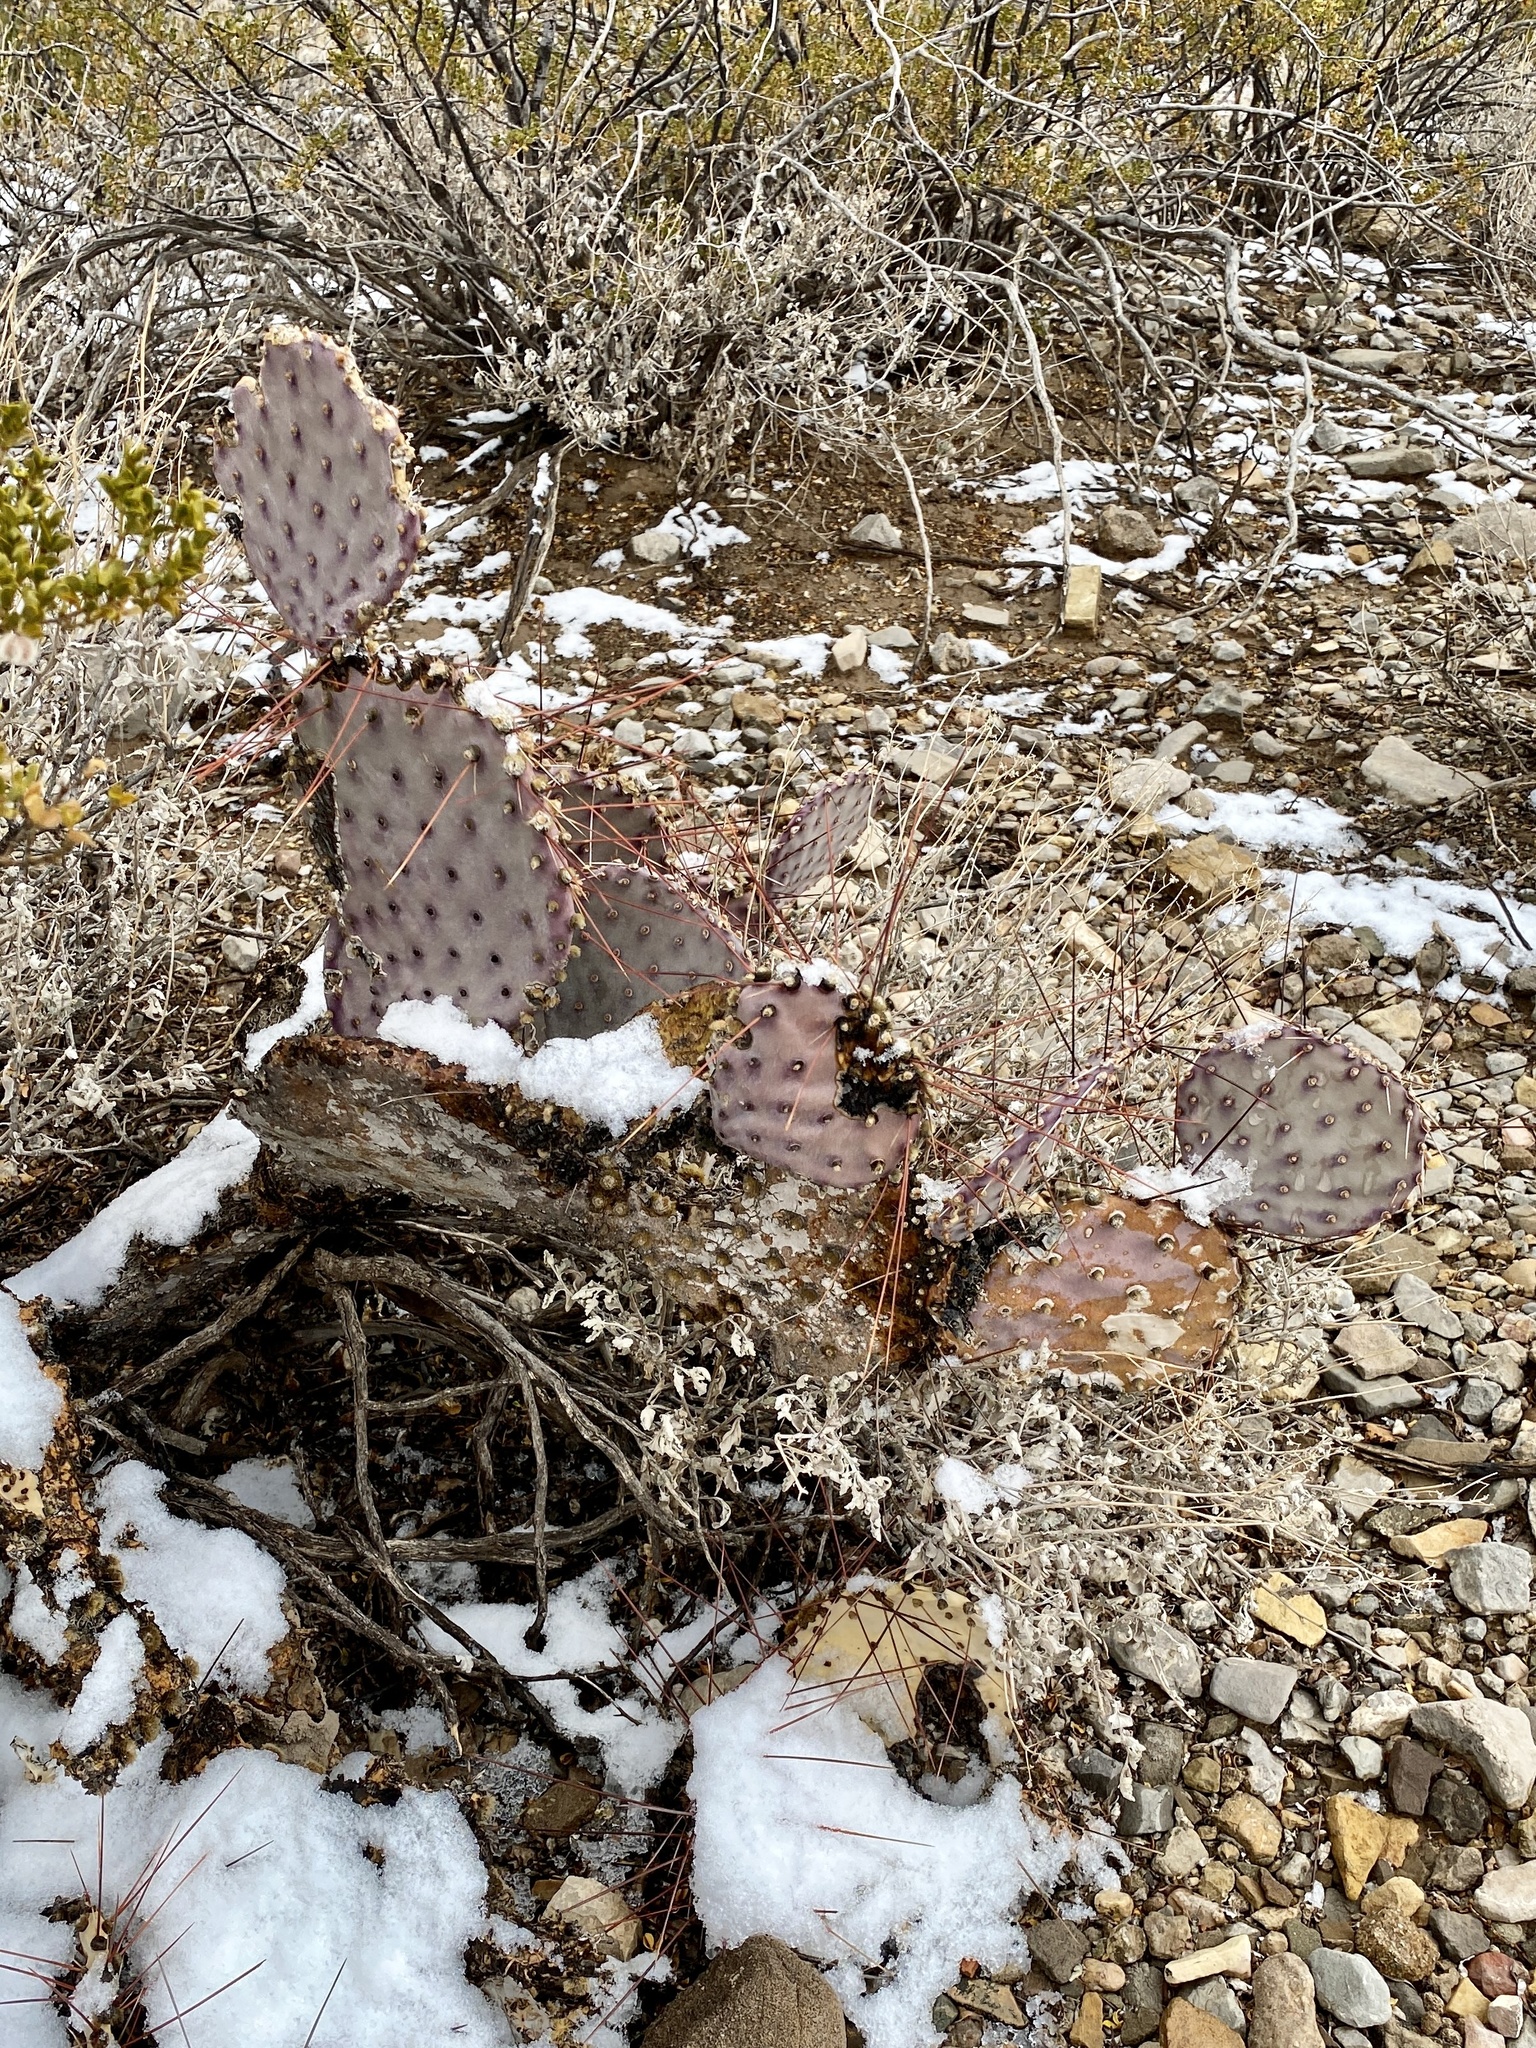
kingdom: Plantae
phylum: Tracheophyta
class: Magnoliopsida
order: Caryophyllales
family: Cactaceae
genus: Opuntia
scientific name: Opuntia macrocentra
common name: Purple prickly-pear
